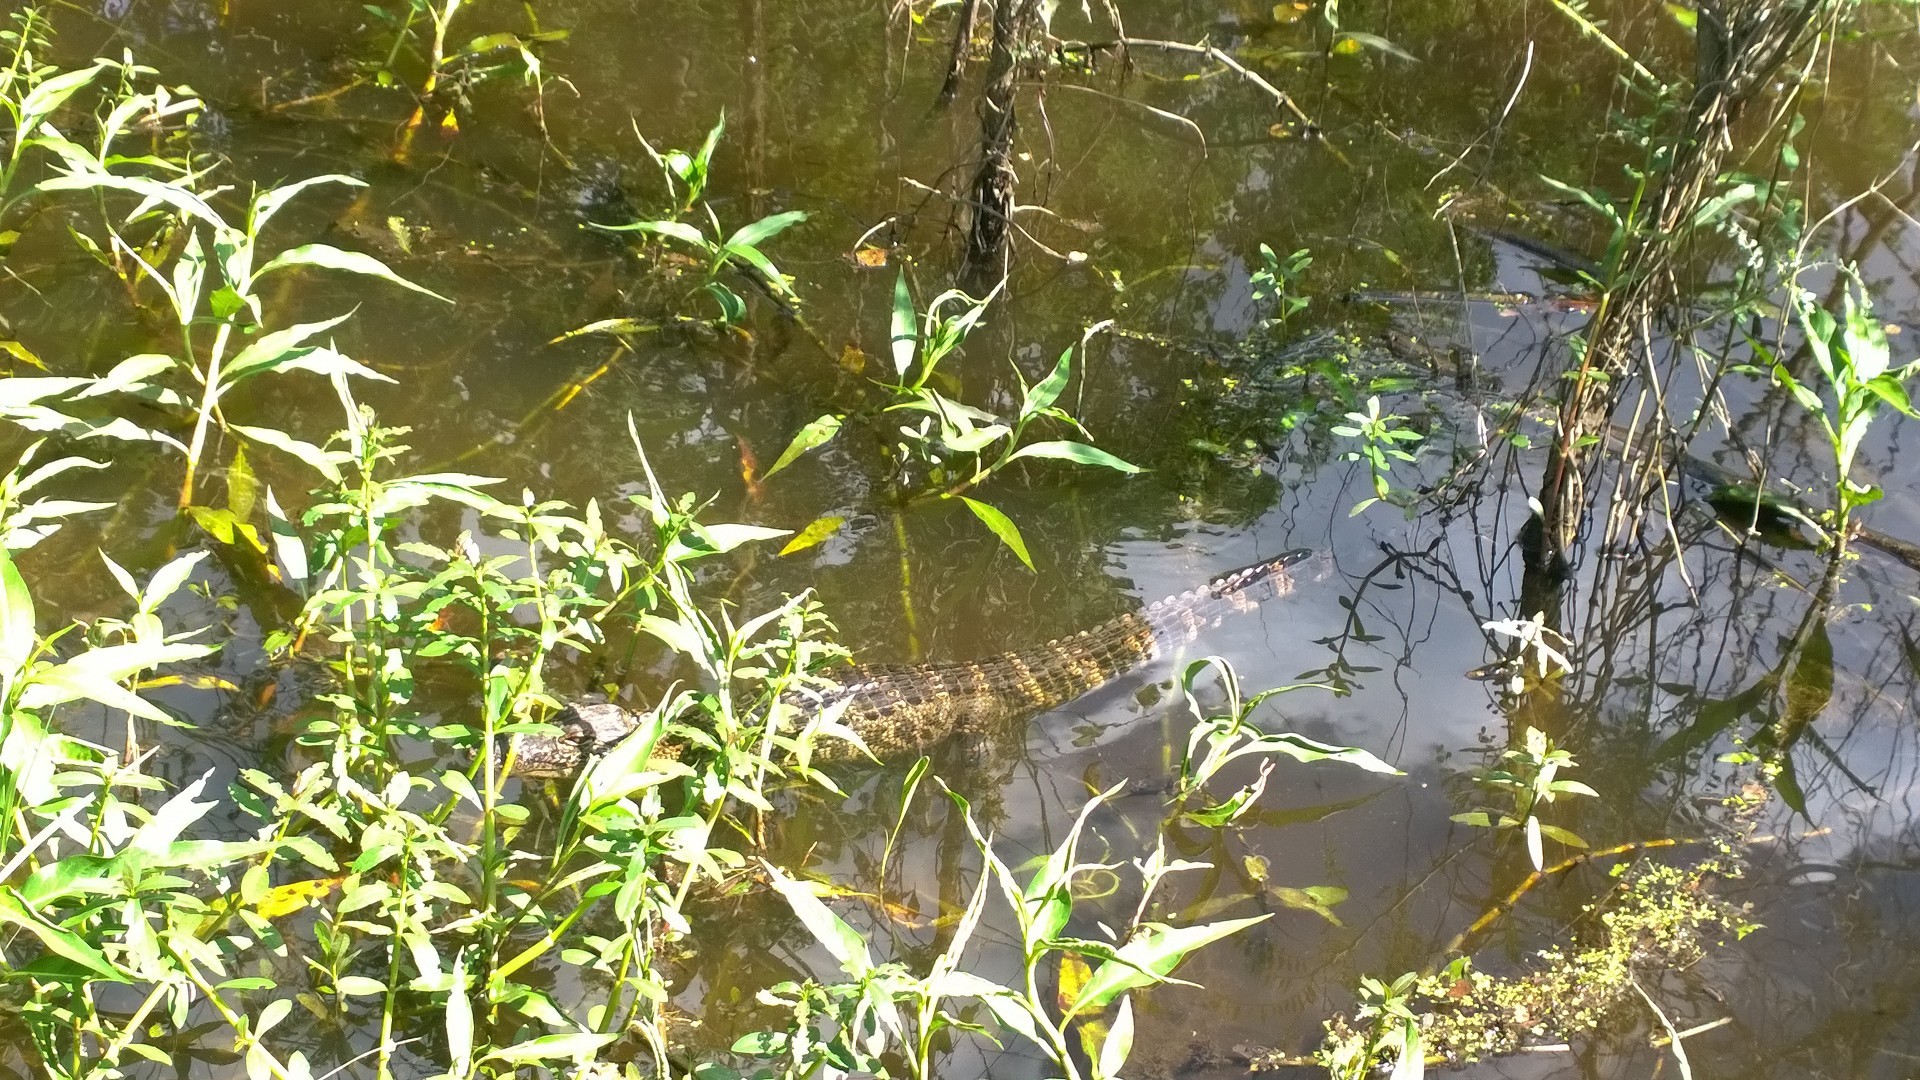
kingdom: Animalia
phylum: Chordata
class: Crocodylia
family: Alligatoridae
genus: Alligator
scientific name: Alligator mississippiensis
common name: American alligator
